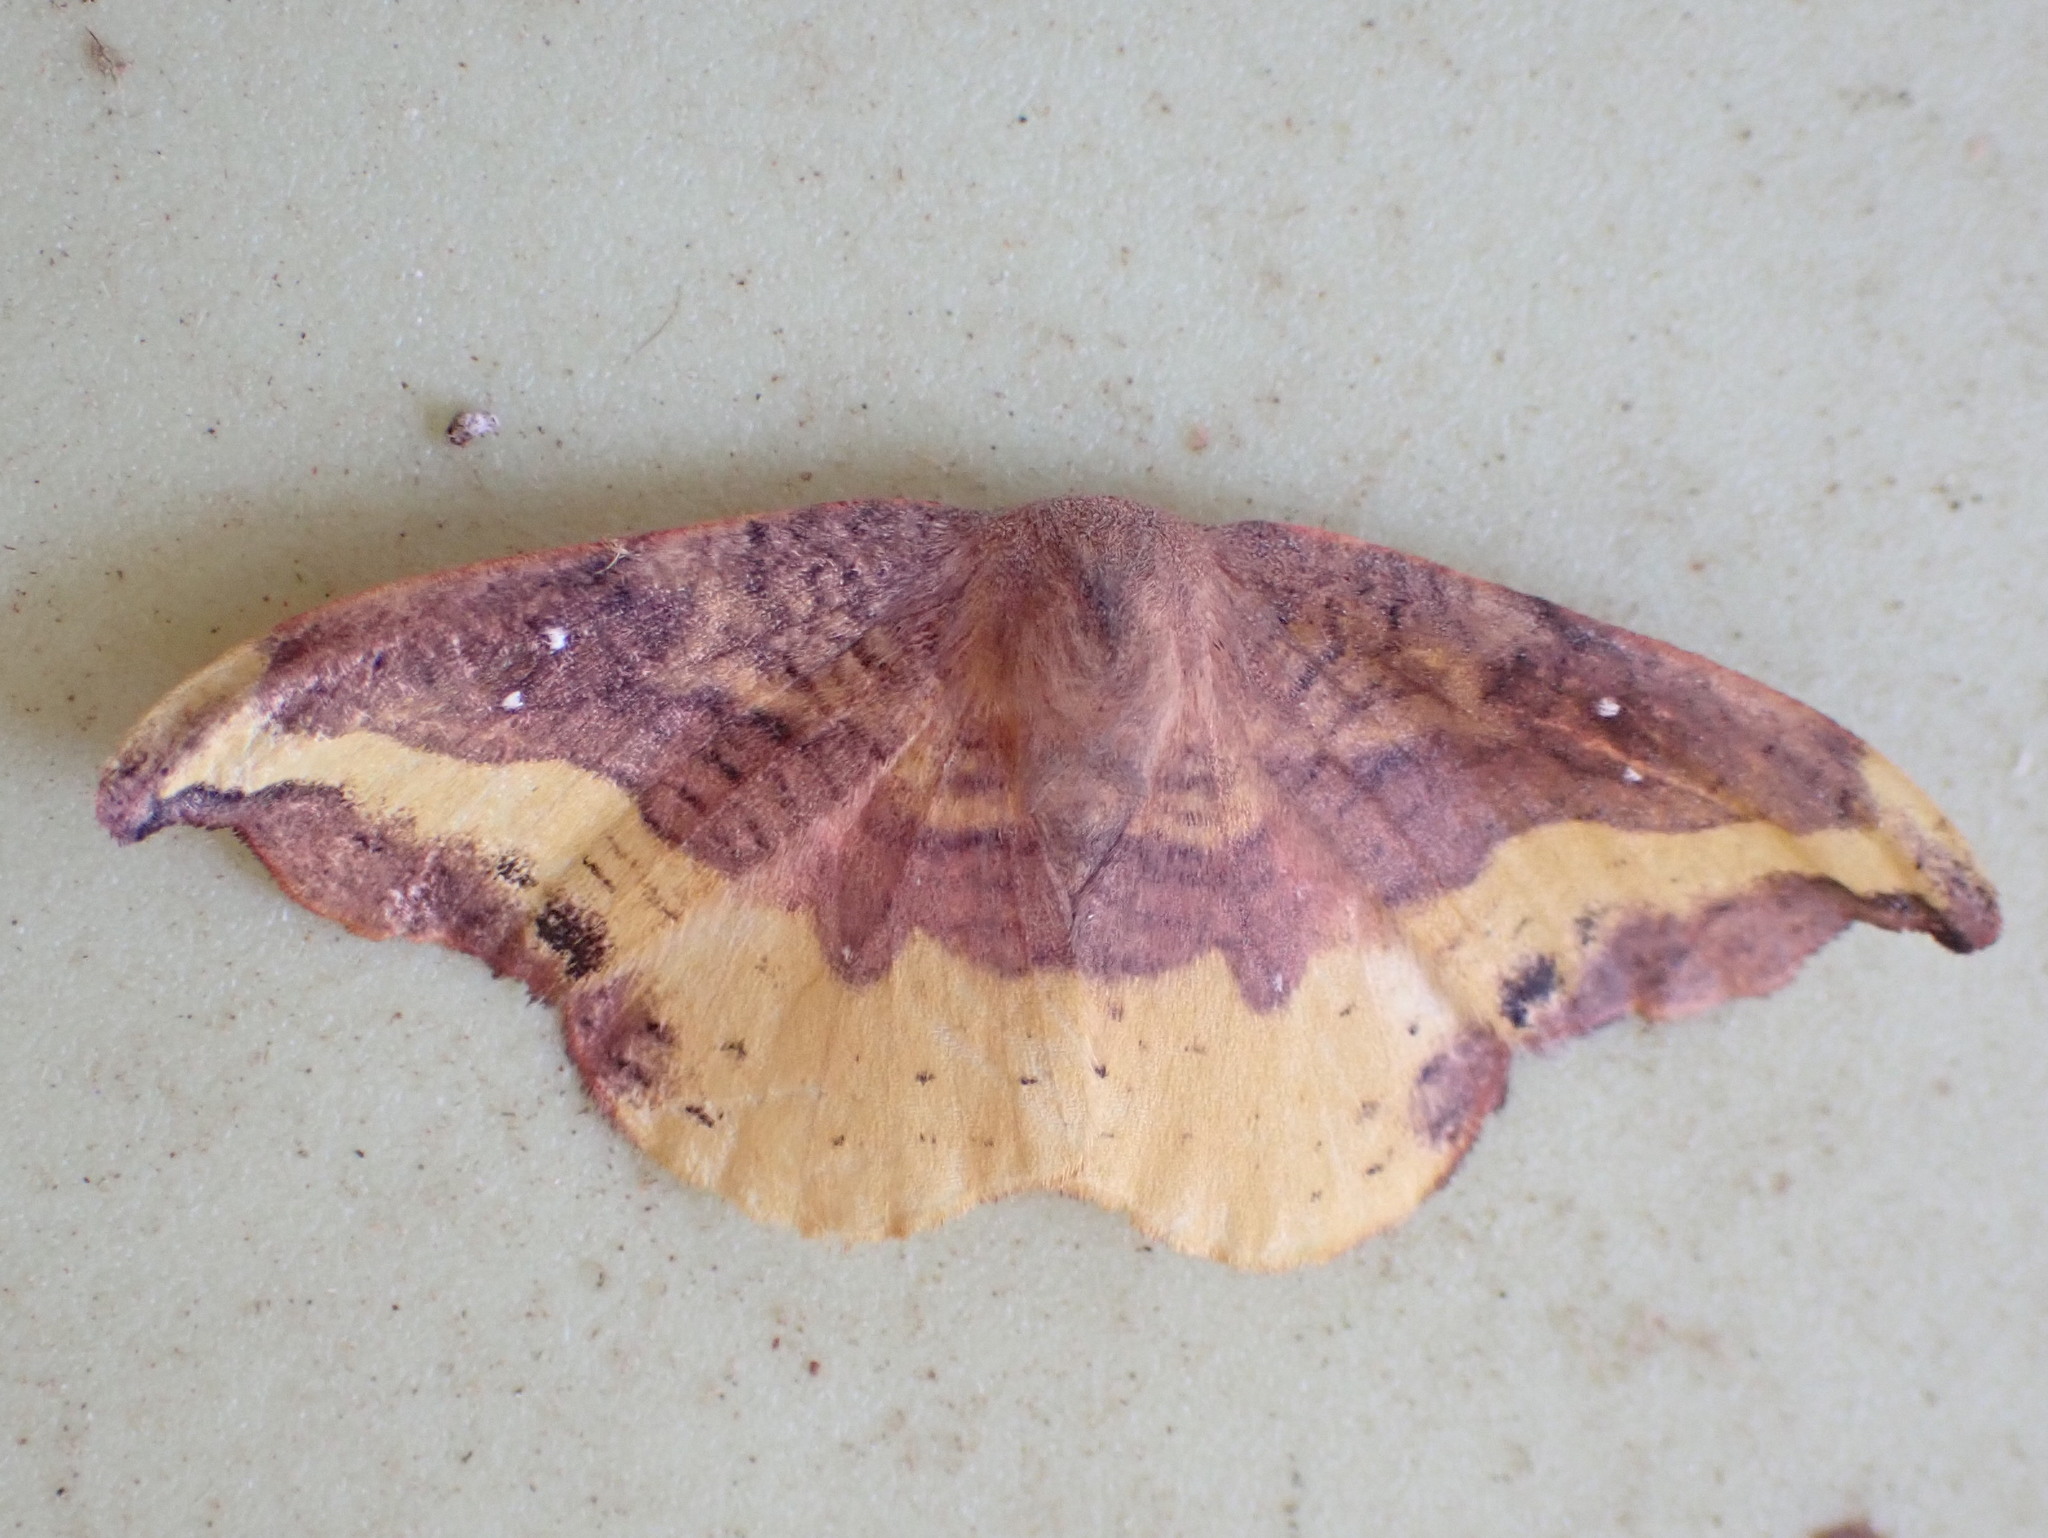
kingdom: Animalia
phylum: Arthropoda
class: Insecta
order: Lepidoptera
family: Drepanidae
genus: Oreta
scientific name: Oreta rosea
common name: Rose hooktip
